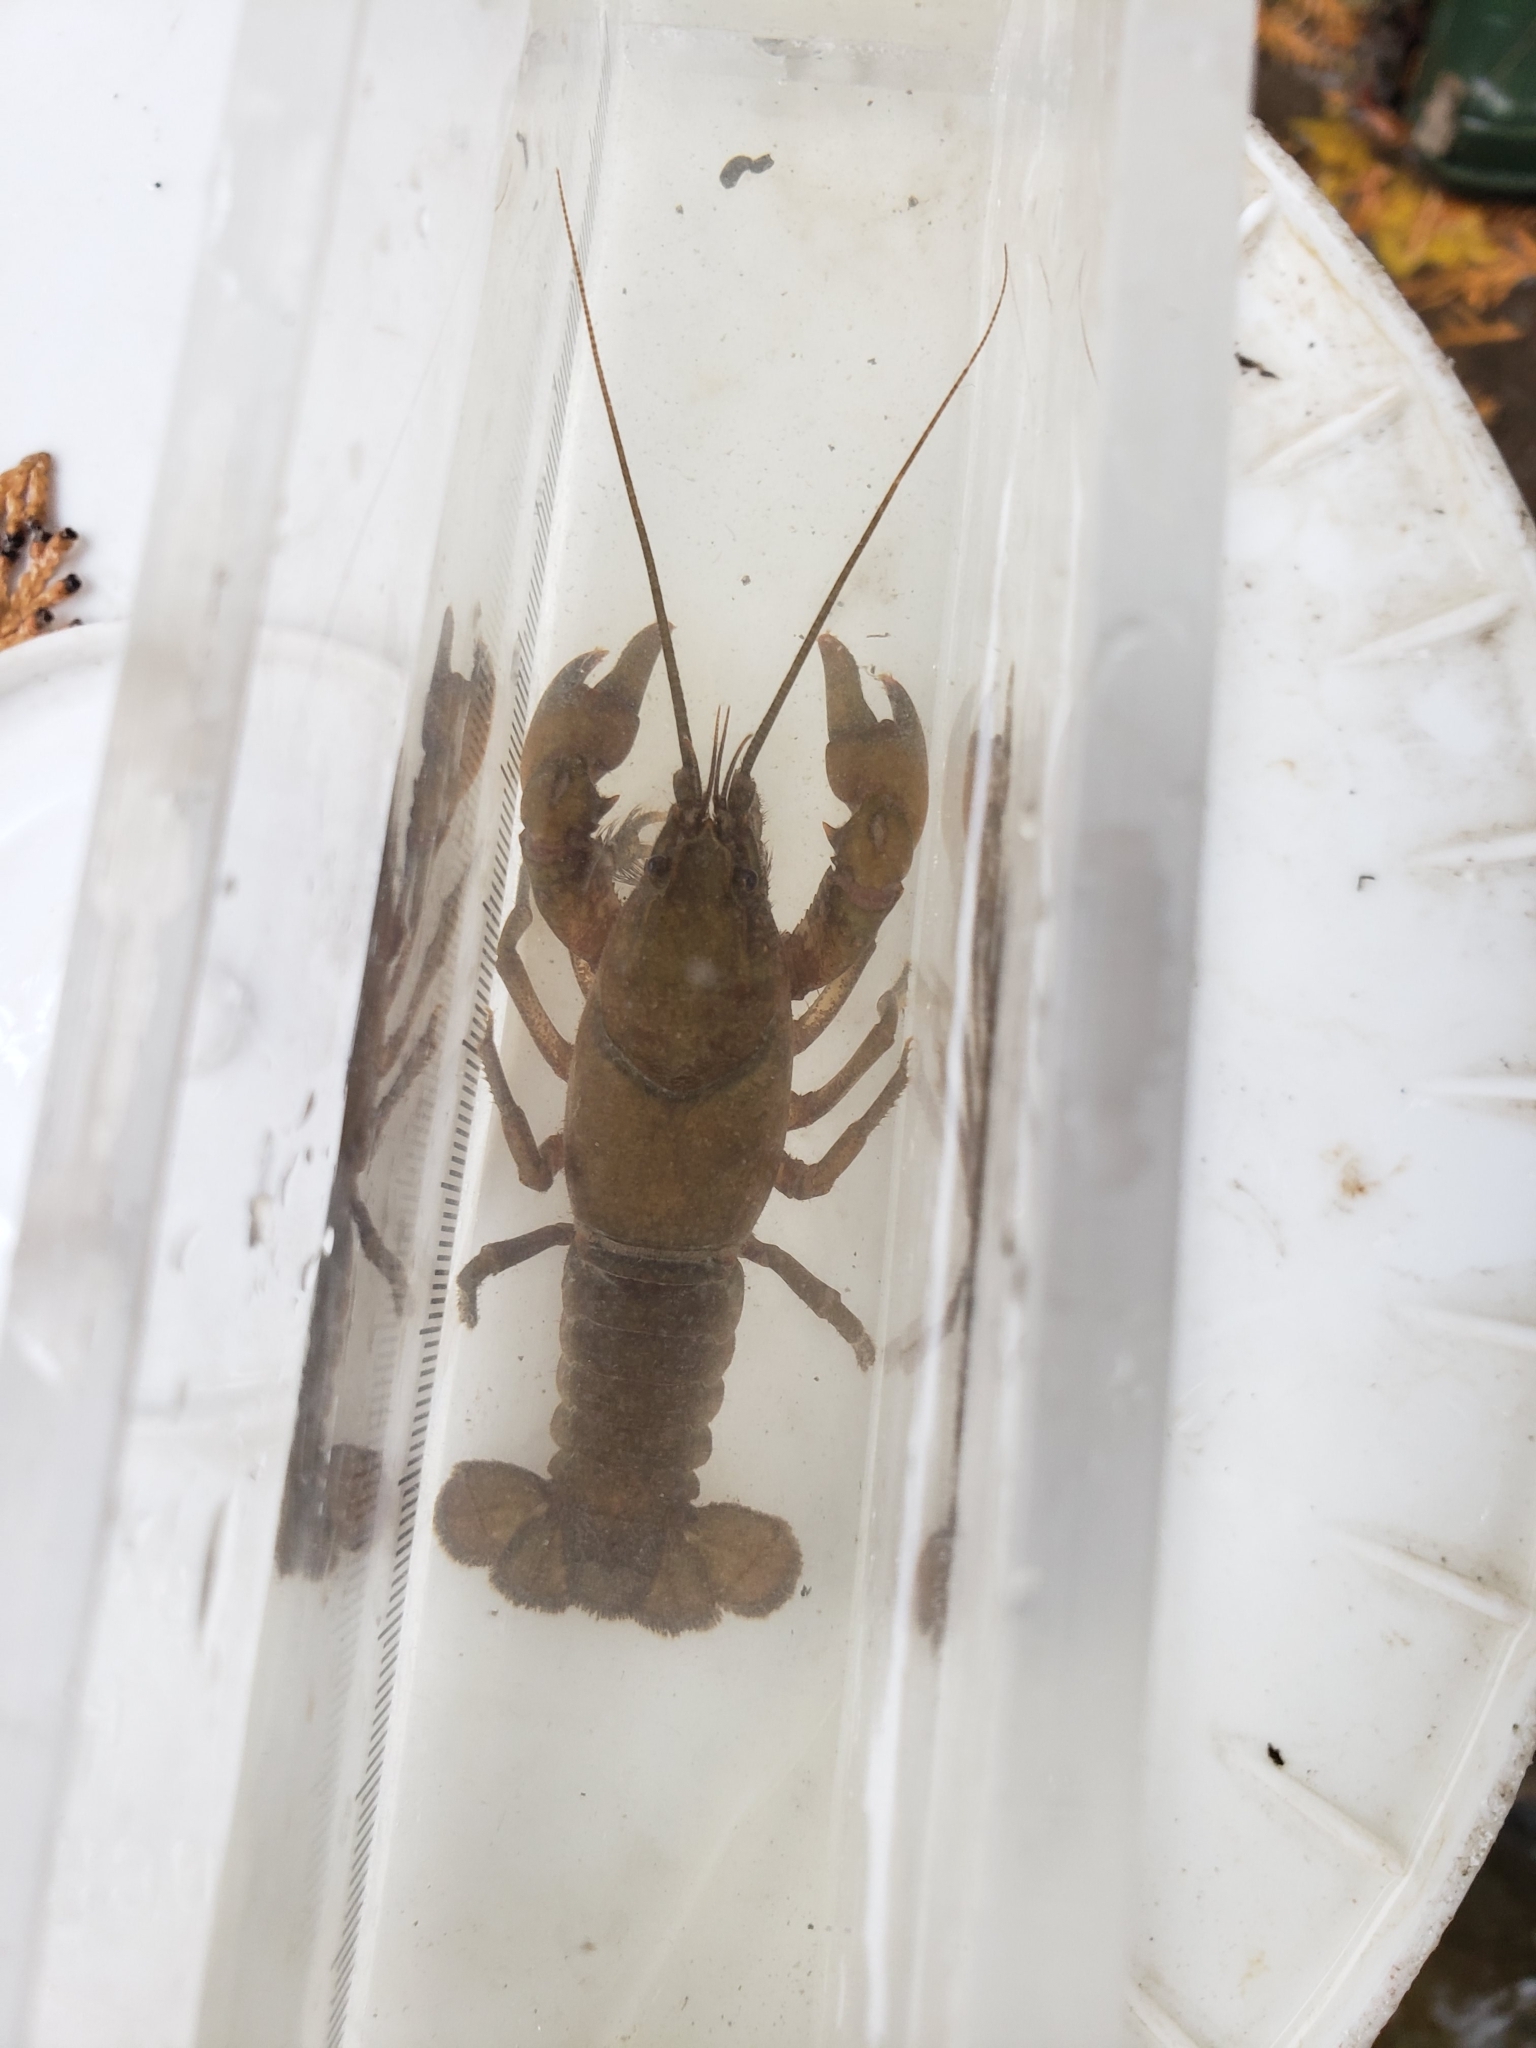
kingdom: Animalia
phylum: Arthropoda
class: Malacostraca
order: Decapoda
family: Cambaridae
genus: Cambarus
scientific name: Cambarus robustus
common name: Big water crayfish
